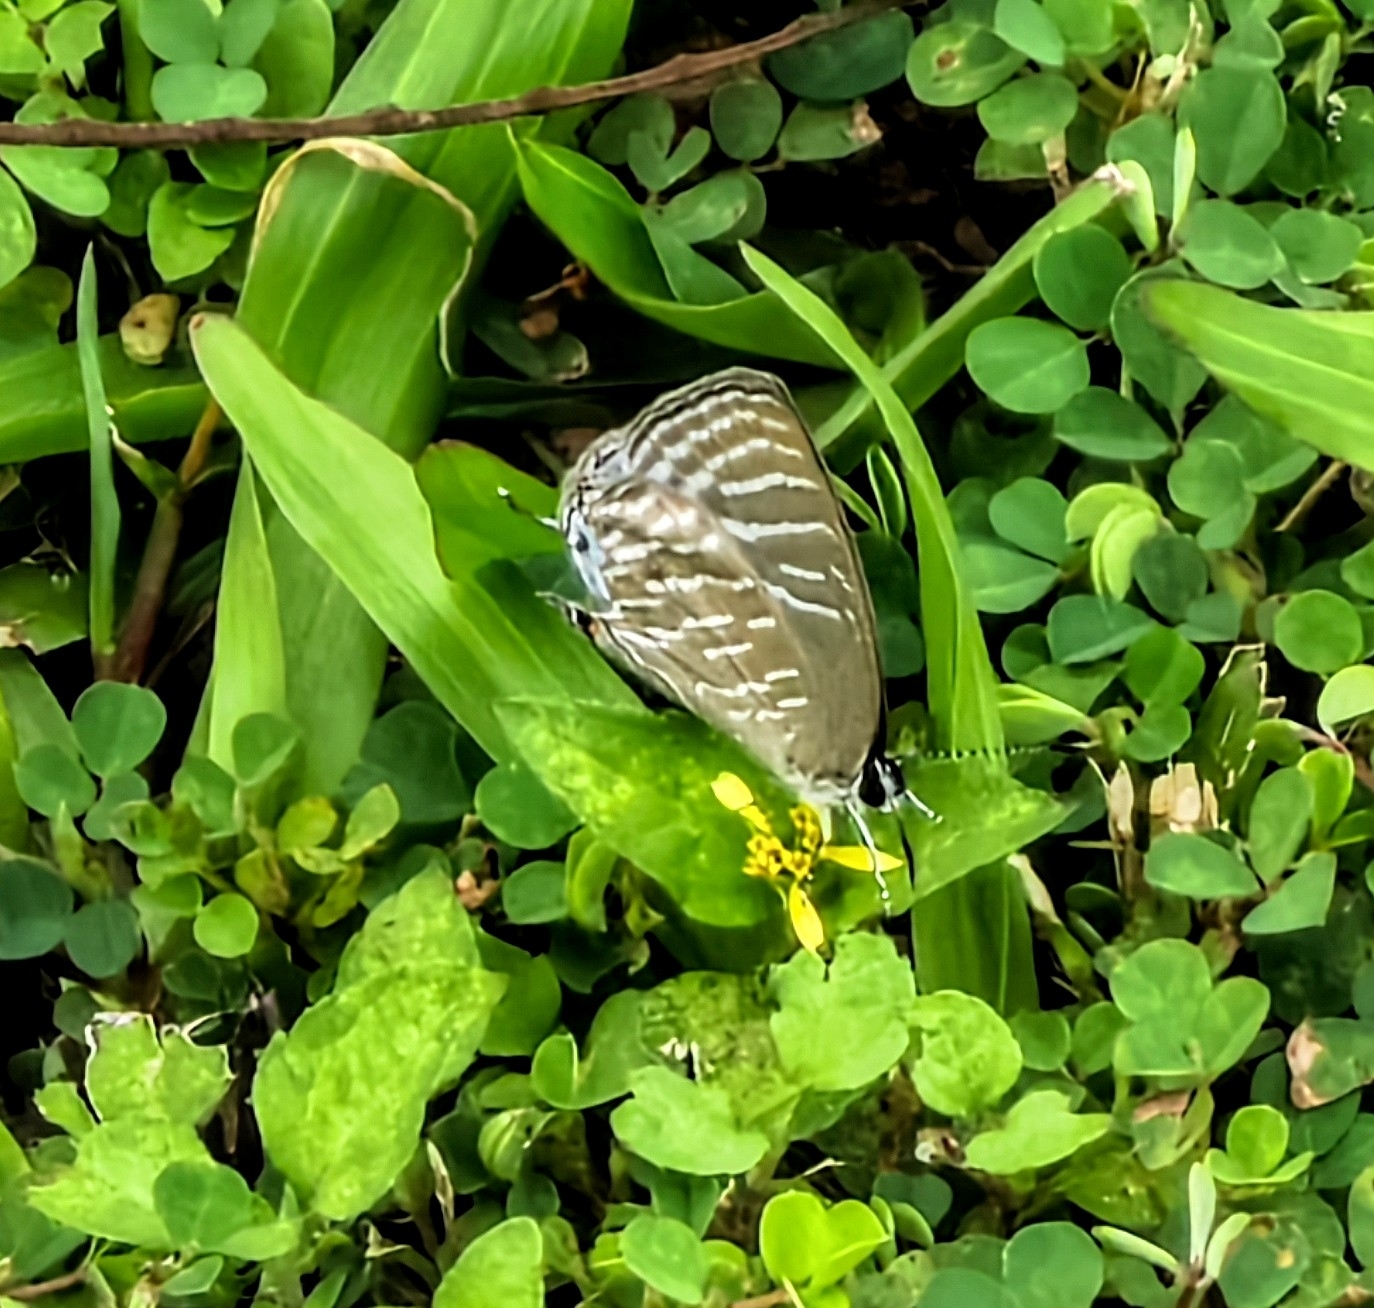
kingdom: Animalia
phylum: Arthropoda
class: Insecta
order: Lepidoptera
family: Lycaenidae
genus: Jamides
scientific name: Jamides celeno
